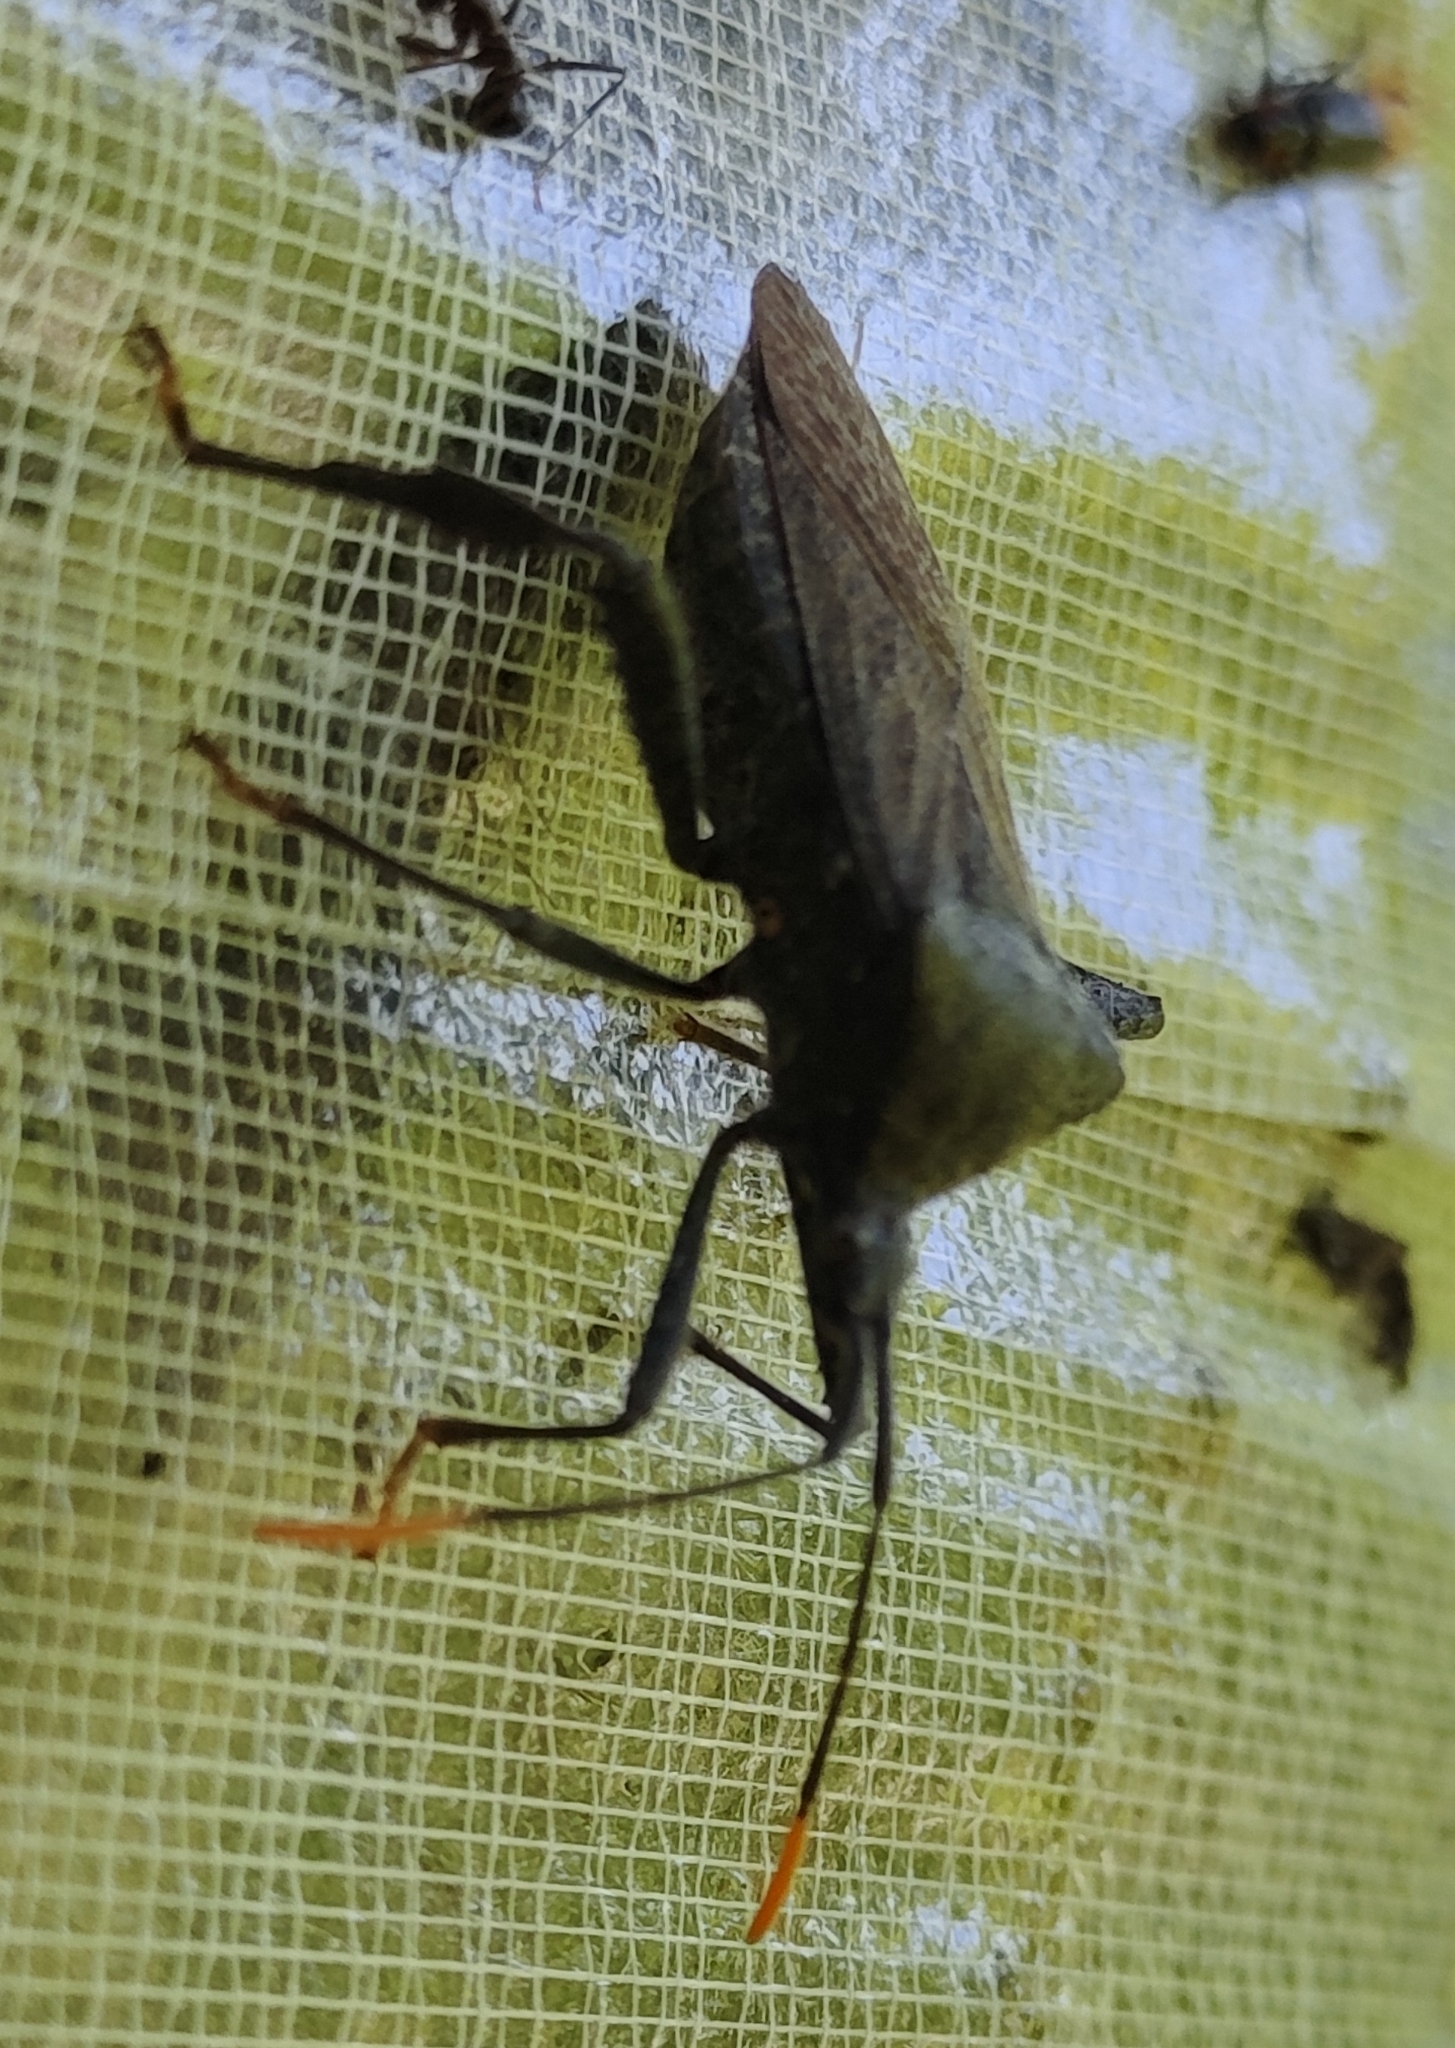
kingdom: Animalia
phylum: Arthropoda
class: Insecta
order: Hemiptera
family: Coreidae
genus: Acanthocephala
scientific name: Acanthocephala terminalis
